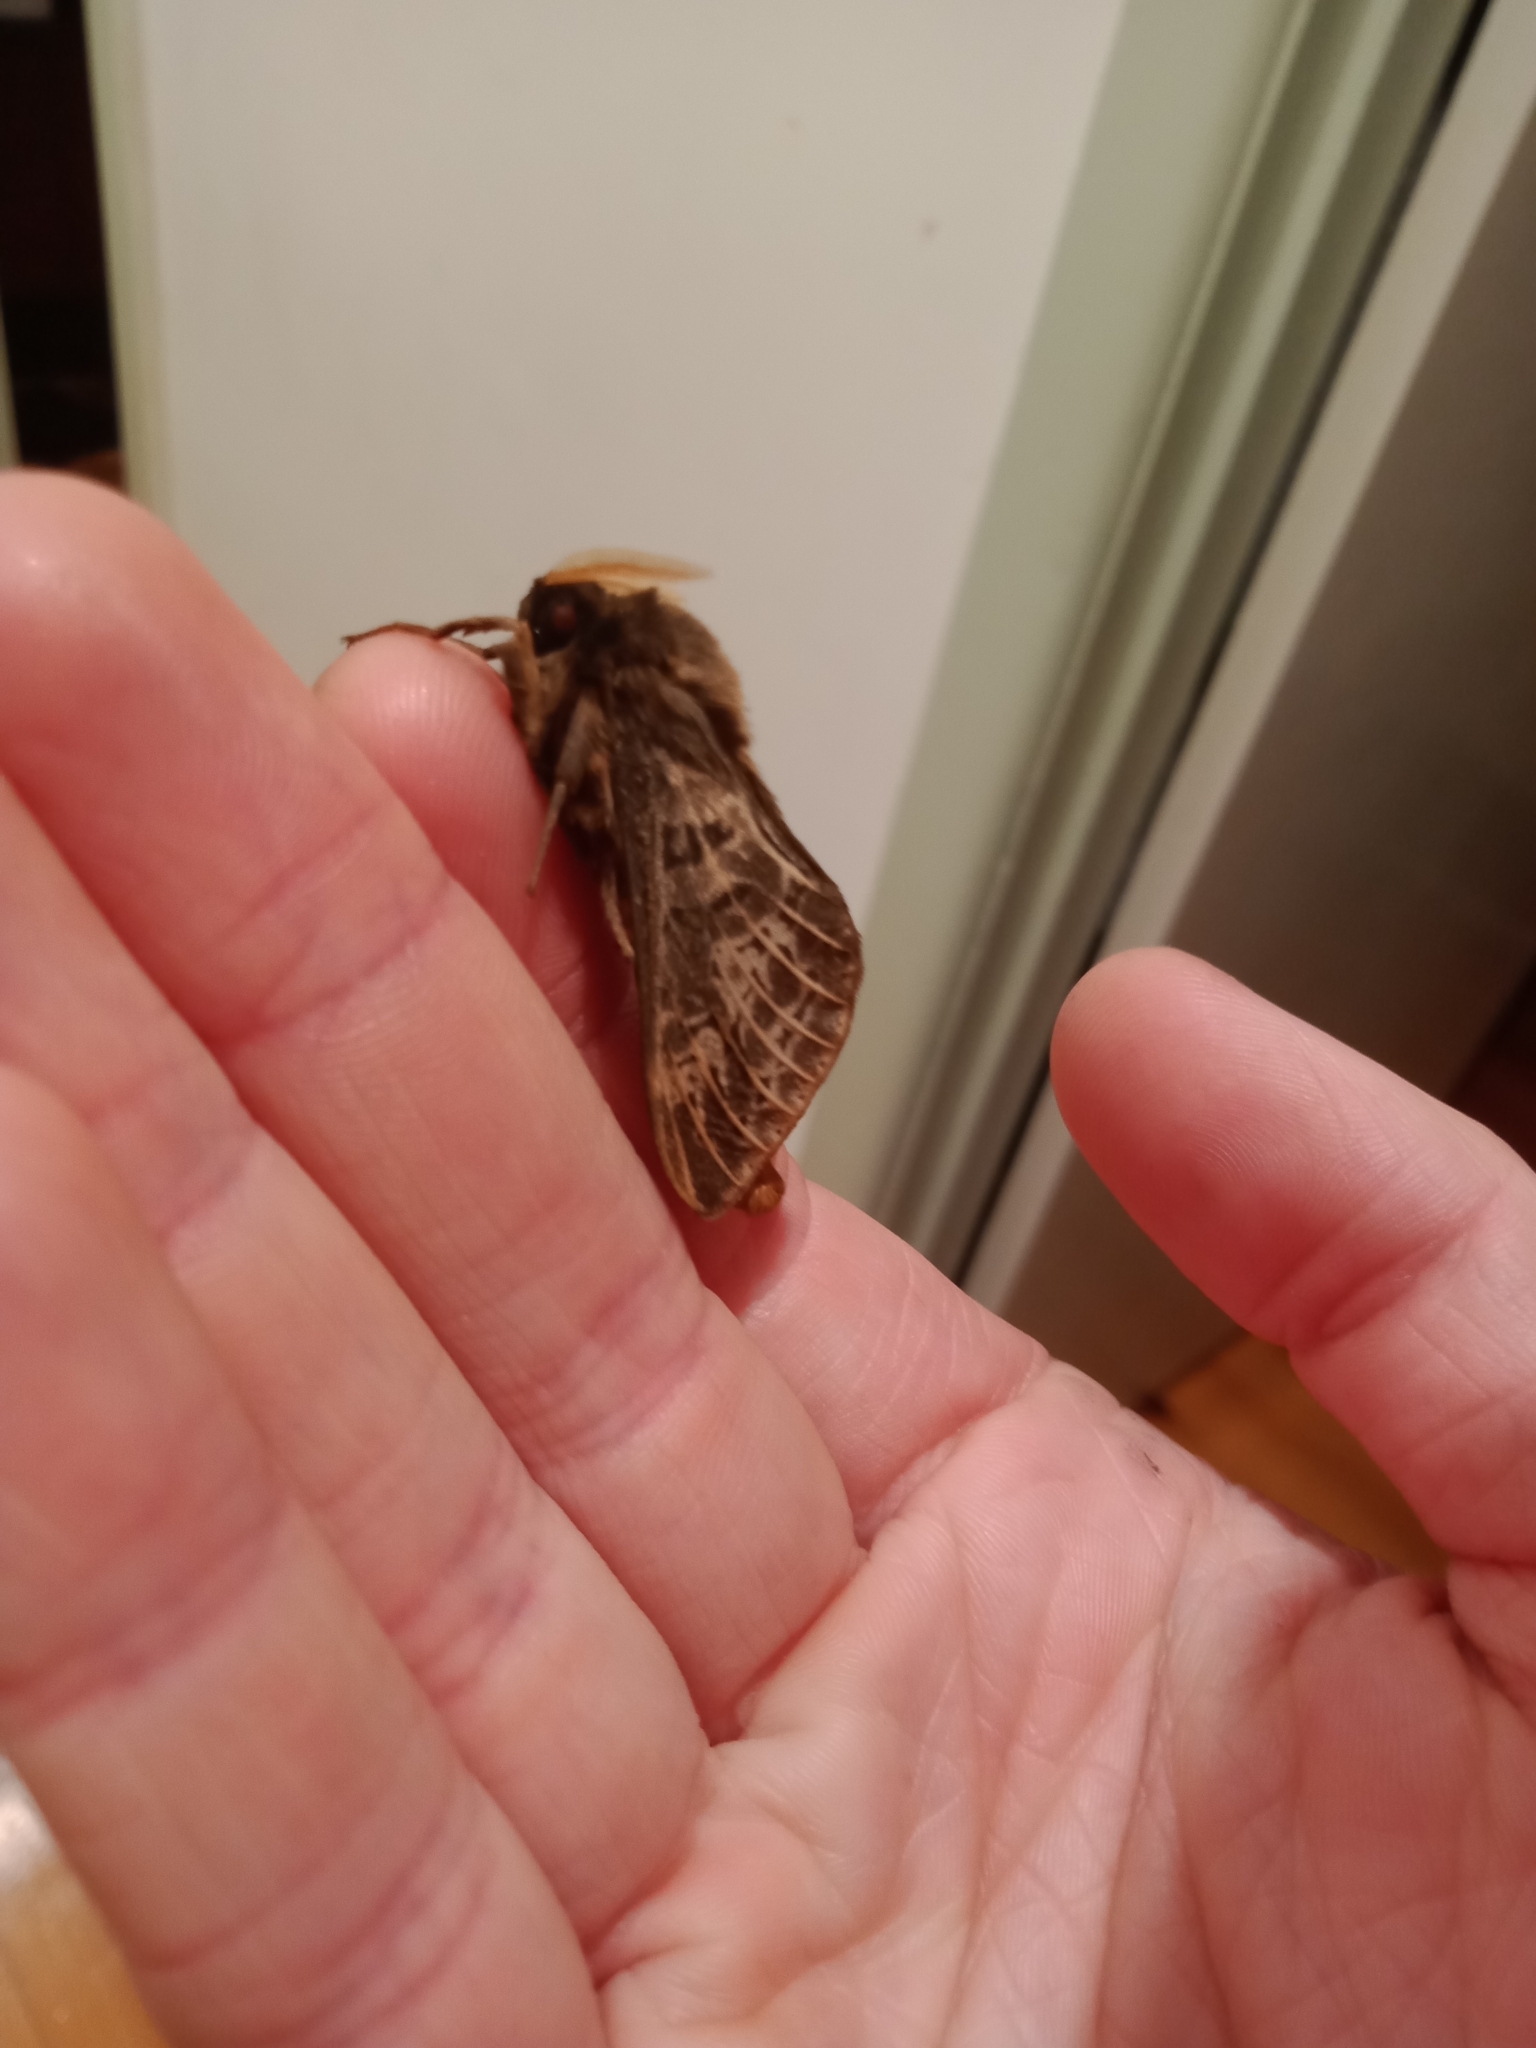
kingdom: Animalia
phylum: Arthropoda
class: Insecta
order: Lepidoptera
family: Hepialidae
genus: Oxycanus
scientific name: Oxycanus antipoda
